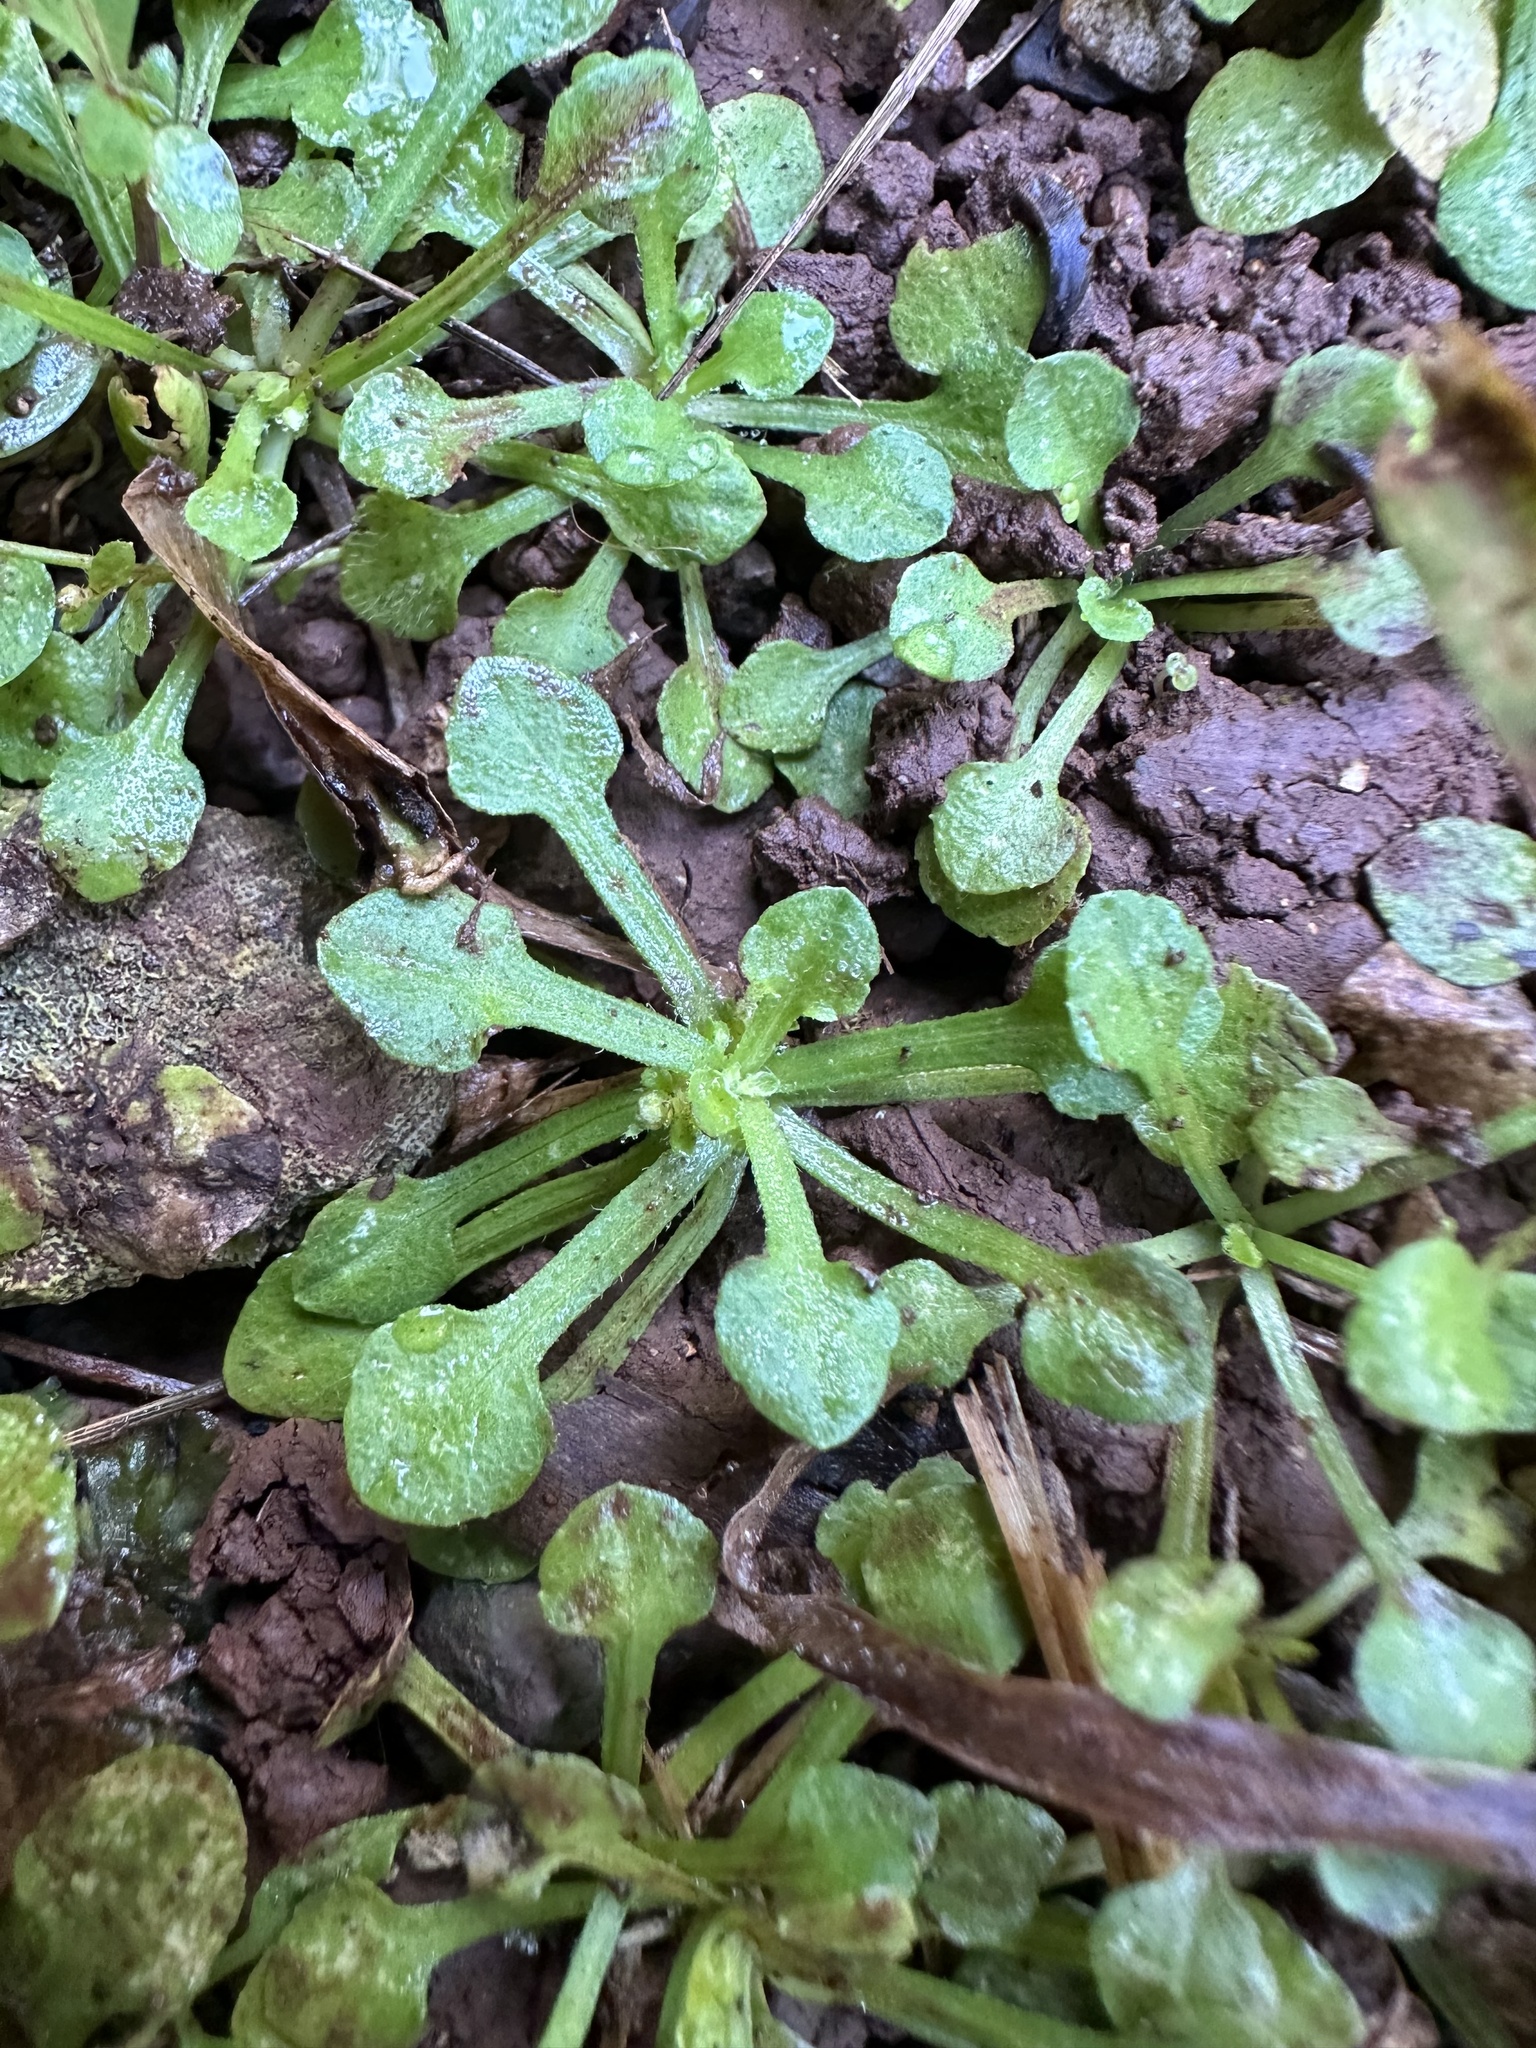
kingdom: Plantae
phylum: Tracheophyta
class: Magnoliopsida
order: Asterales
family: Asteraceae
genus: Erigeron
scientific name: Erigeron bellioides
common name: Bellorita
